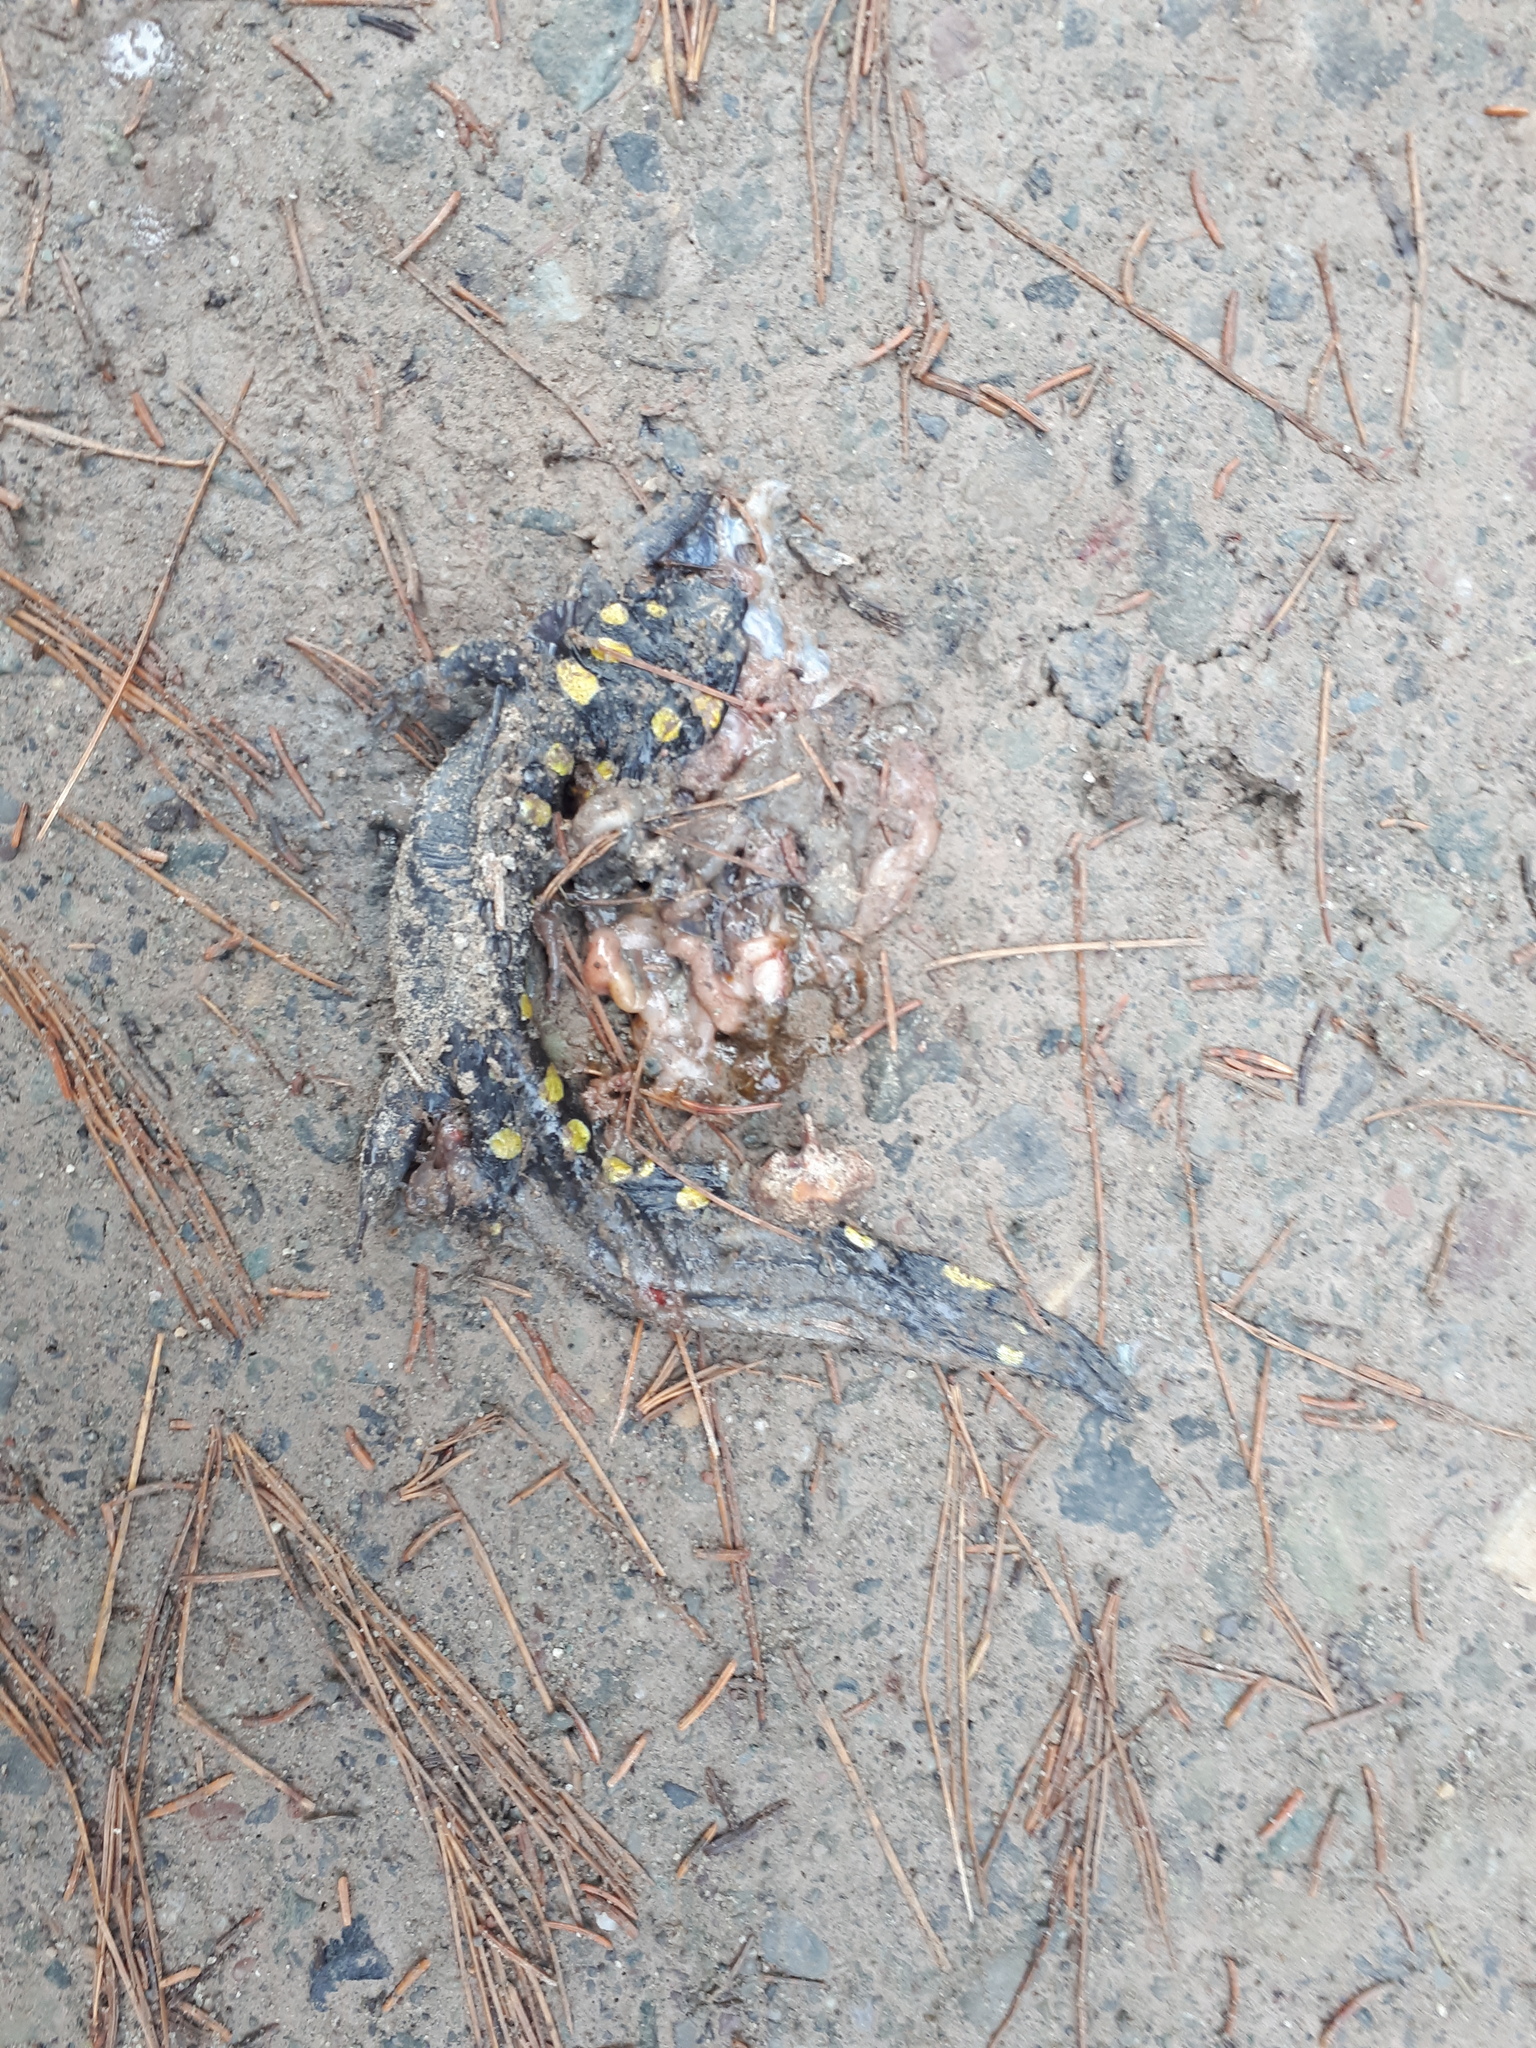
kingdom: Animalia
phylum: Chordata
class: Amphibia
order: Caudata
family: Ambystomatidae
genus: Ambystoma
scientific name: Ambystoma maculatum
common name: Spotted salamander
